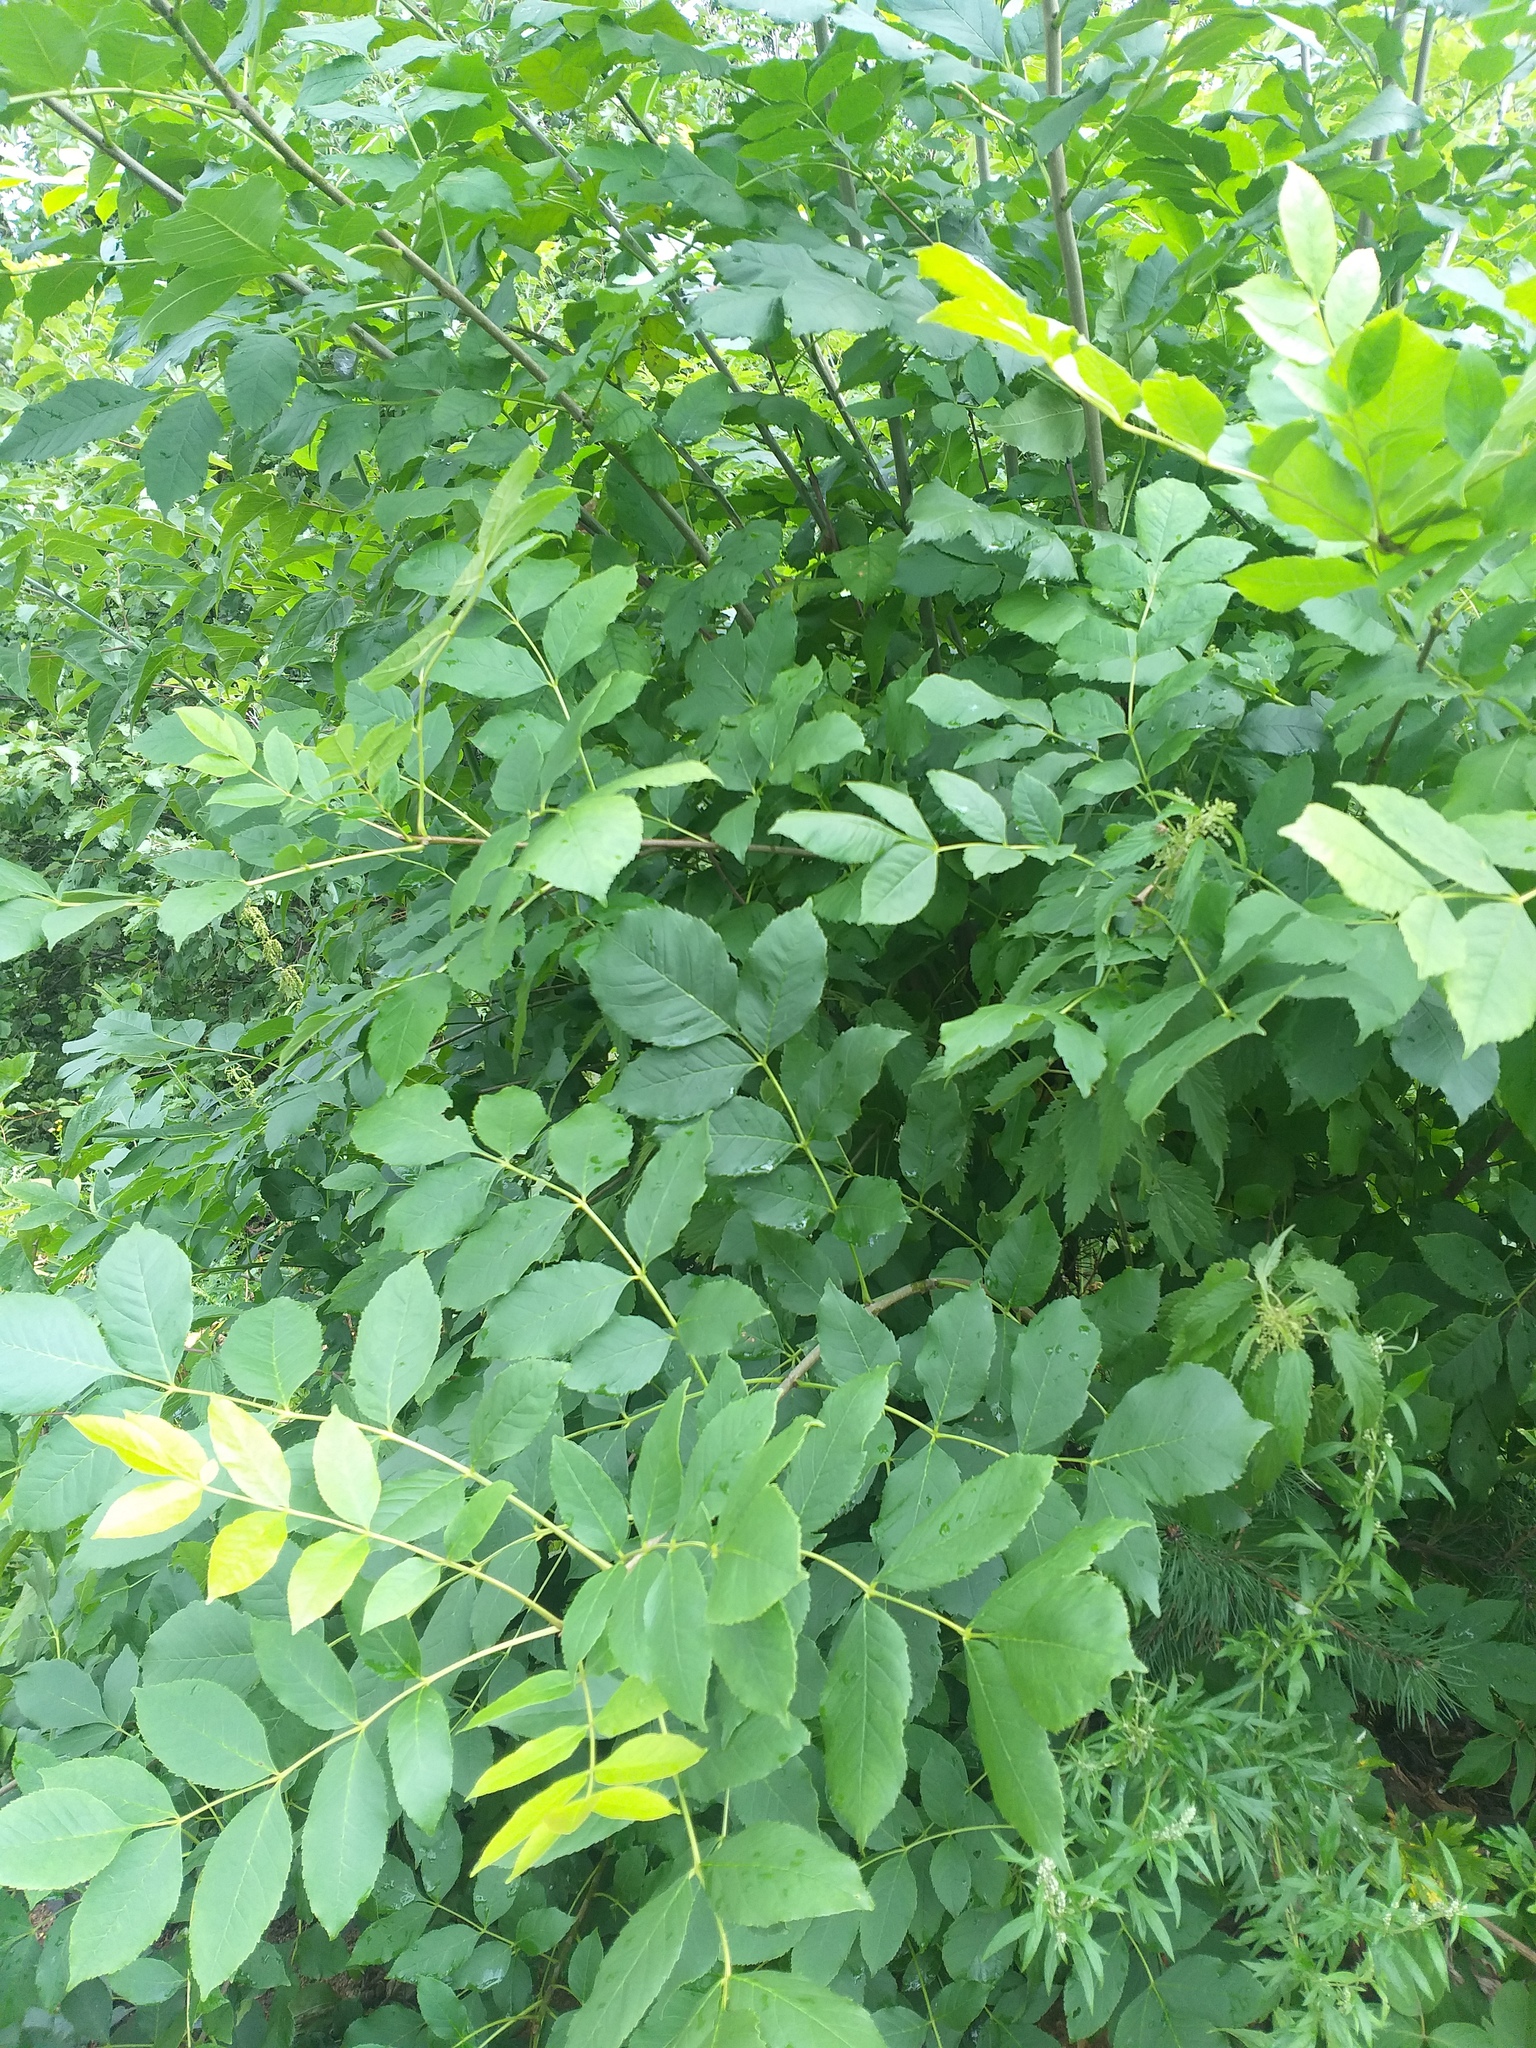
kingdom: Plantae
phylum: Tracheophyta
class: Magnoliopsida
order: Lamiales
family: Oleaceae
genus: Fraxinus
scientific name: Fraxinus pennsylvanica
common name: Green ash
